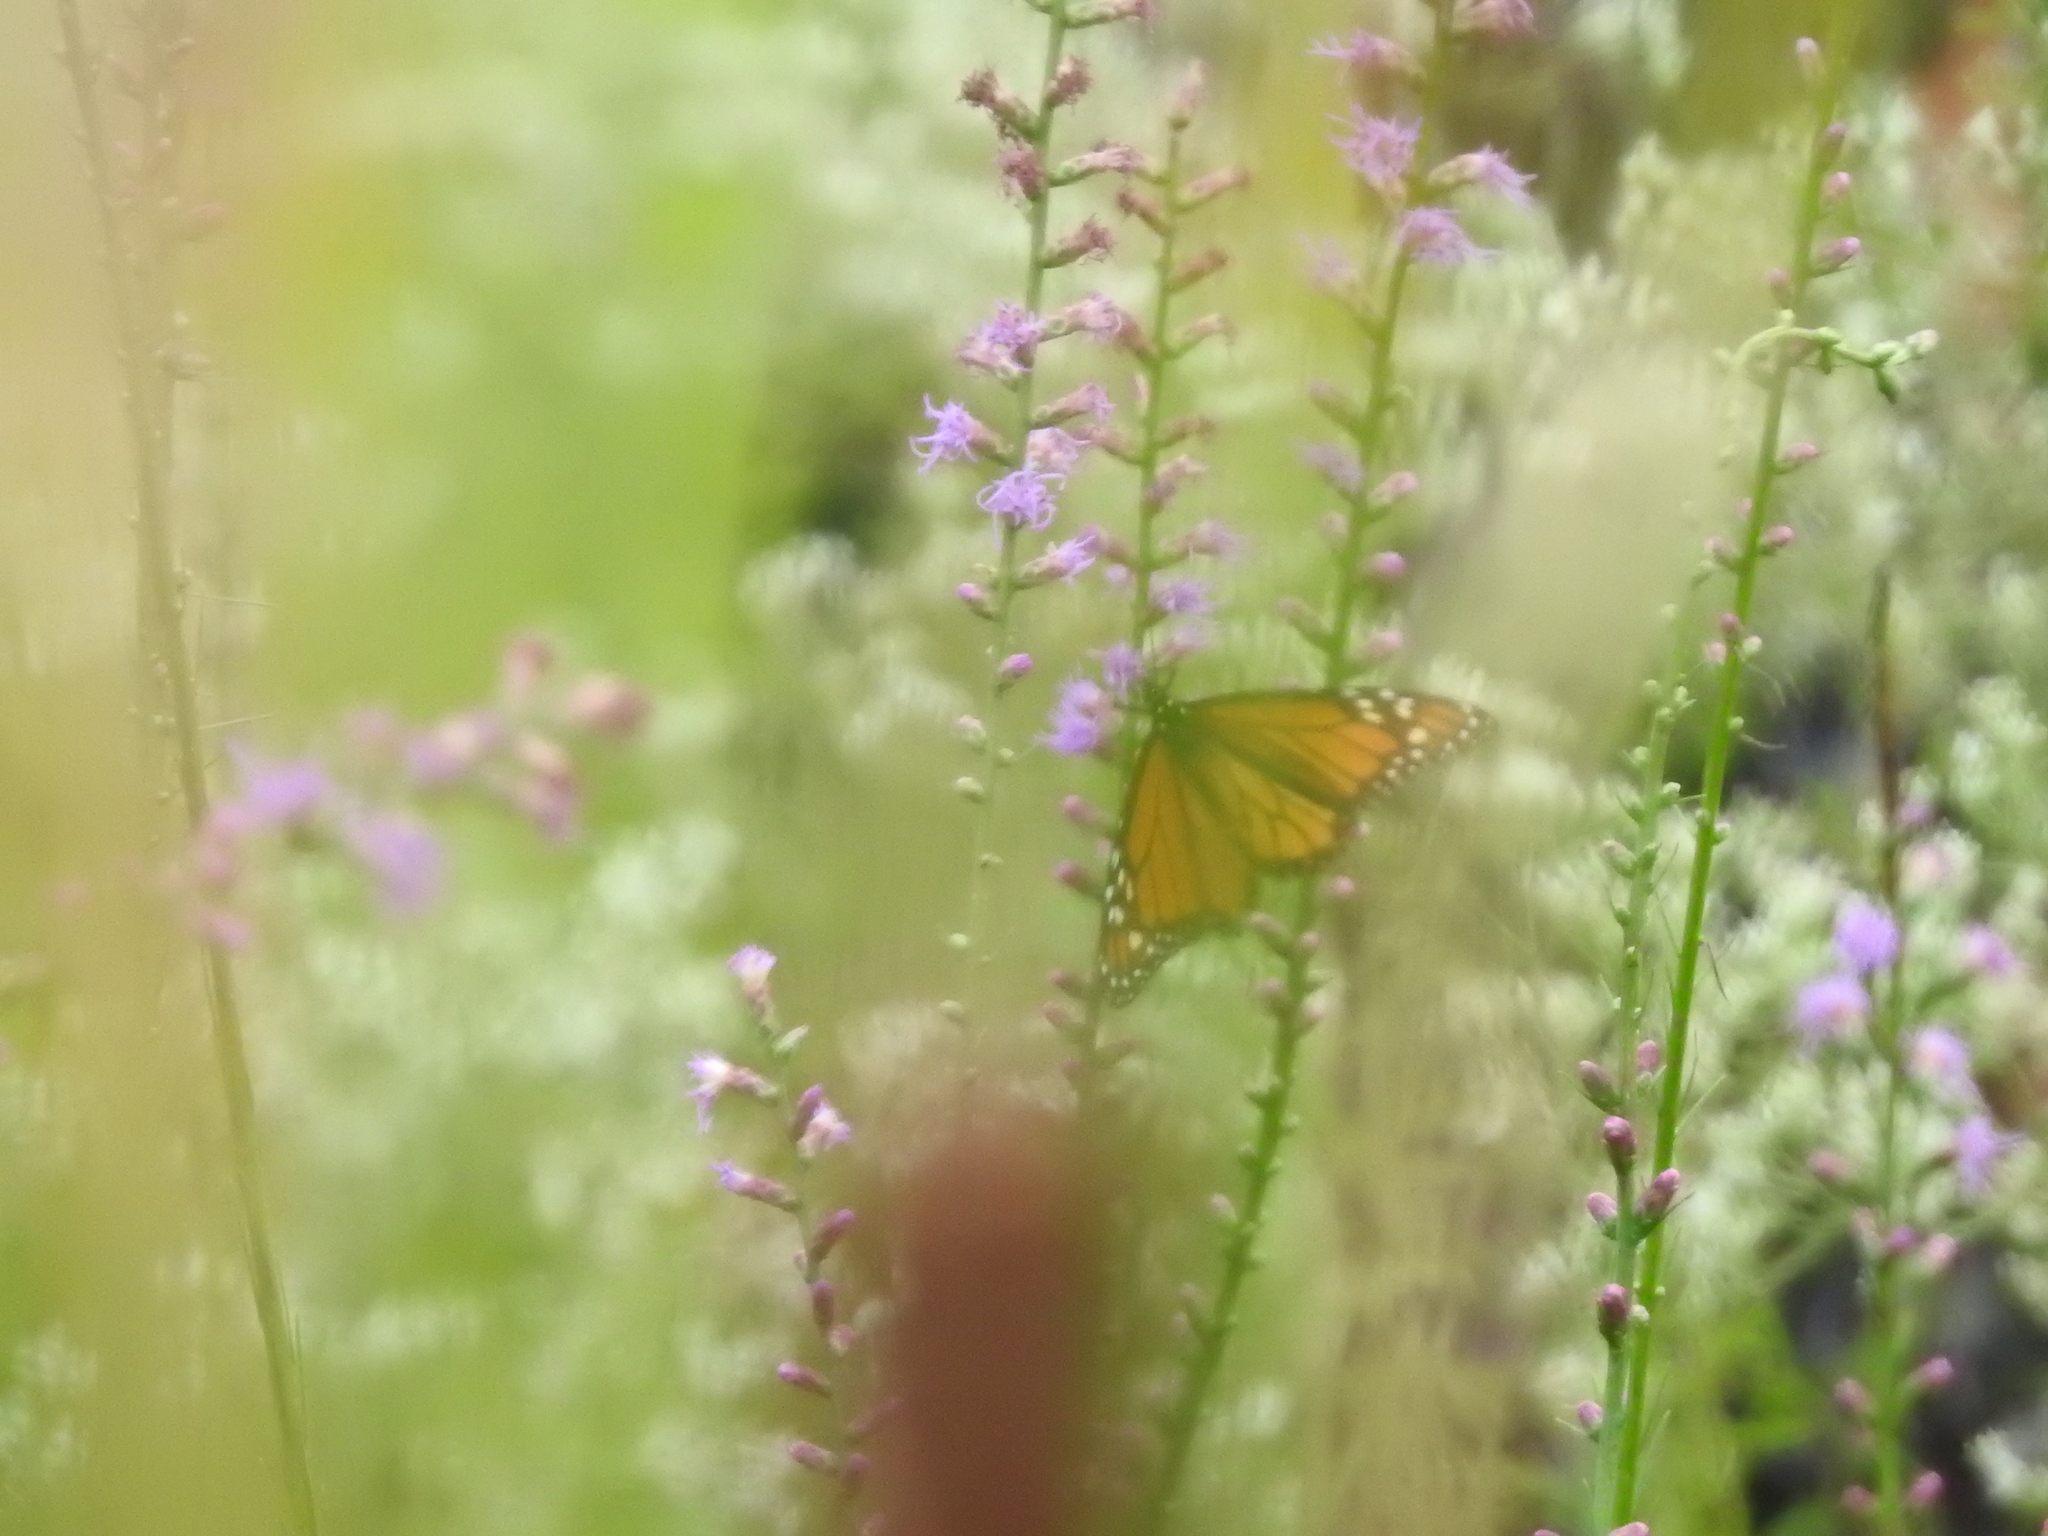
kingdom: Animalia
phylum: Arthropoda
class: Insecta
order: Lepidoptera
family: Nymphalidae
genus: Danaus
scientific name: Danaus plexippus
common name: Monarch
